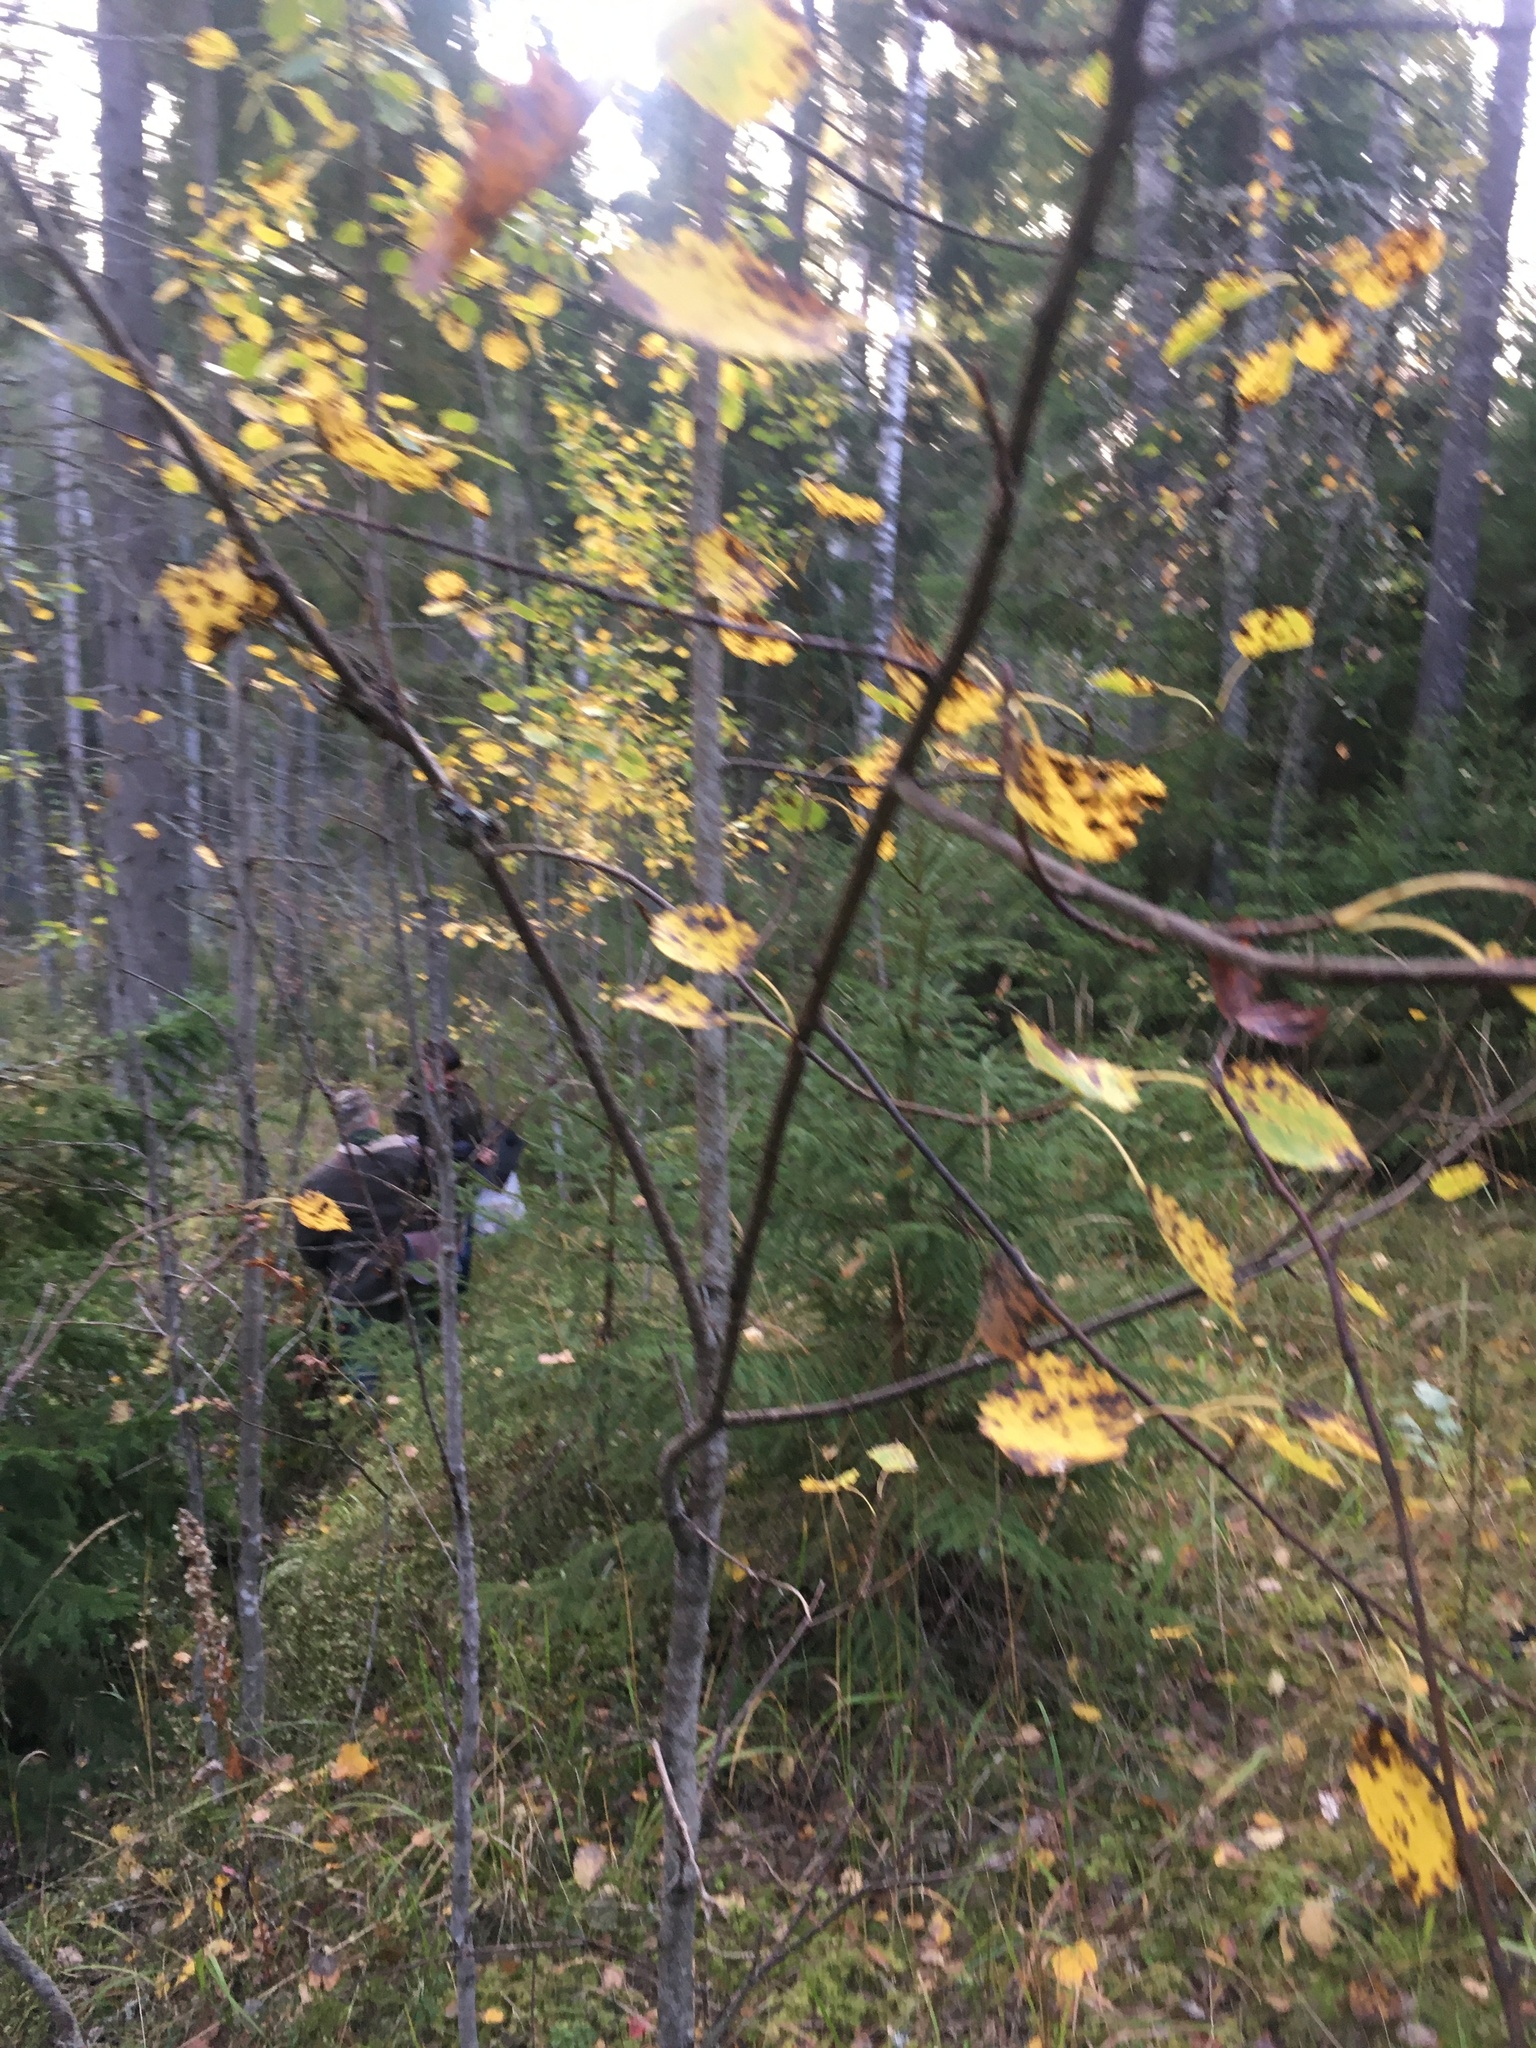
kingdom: Plantae
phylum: Tracheophyta
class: Magnoliopsida
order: Malpighiales
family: Salicaceae
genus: Populus
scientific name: Populus tremula
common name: European aspen
